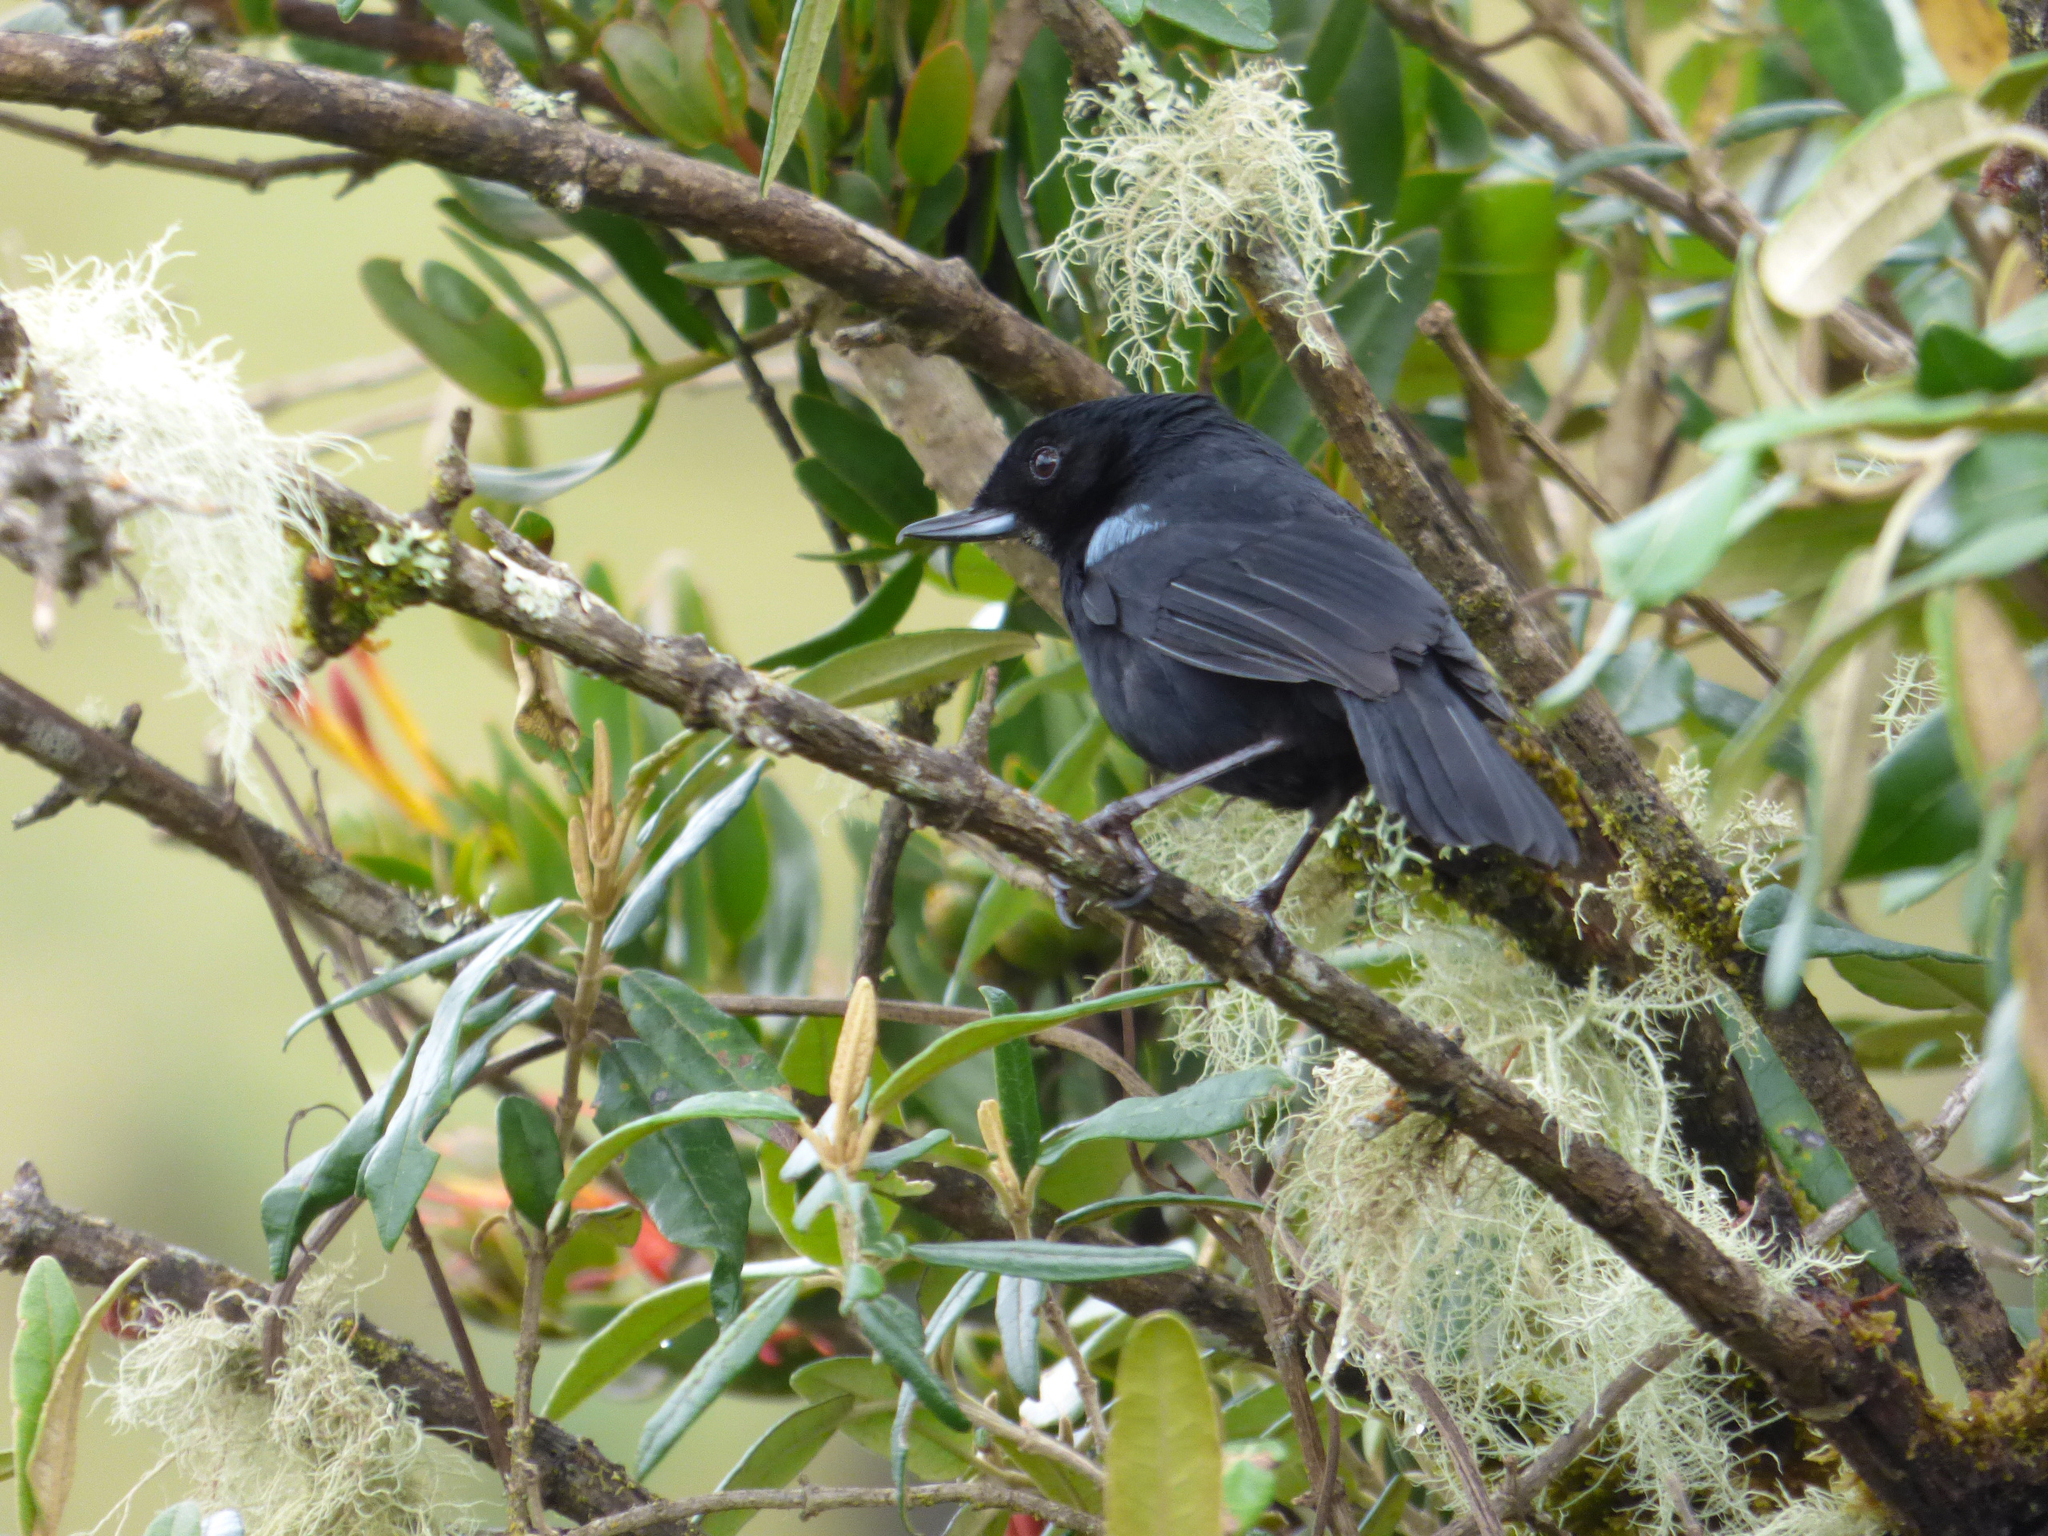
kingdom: Animalia
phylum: Chordata
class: Aves
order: Passeriformes
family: Thraupidae
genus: Diglossa
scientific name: Diglossa lafresnayii
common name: Glossy flowerpiercer
